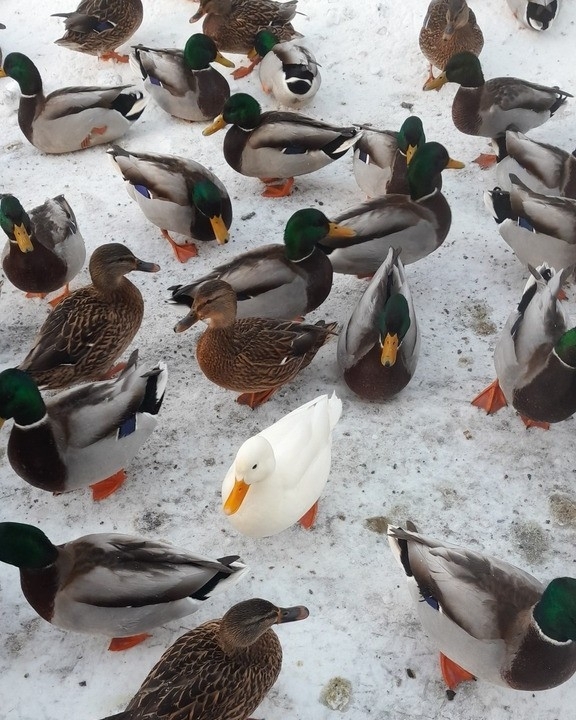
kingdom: Animalia
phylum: Chordata
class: Aves
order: Anseriformes
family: Anatidae
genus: Anas
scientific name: Anas platyrhynchos
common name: Mallard
